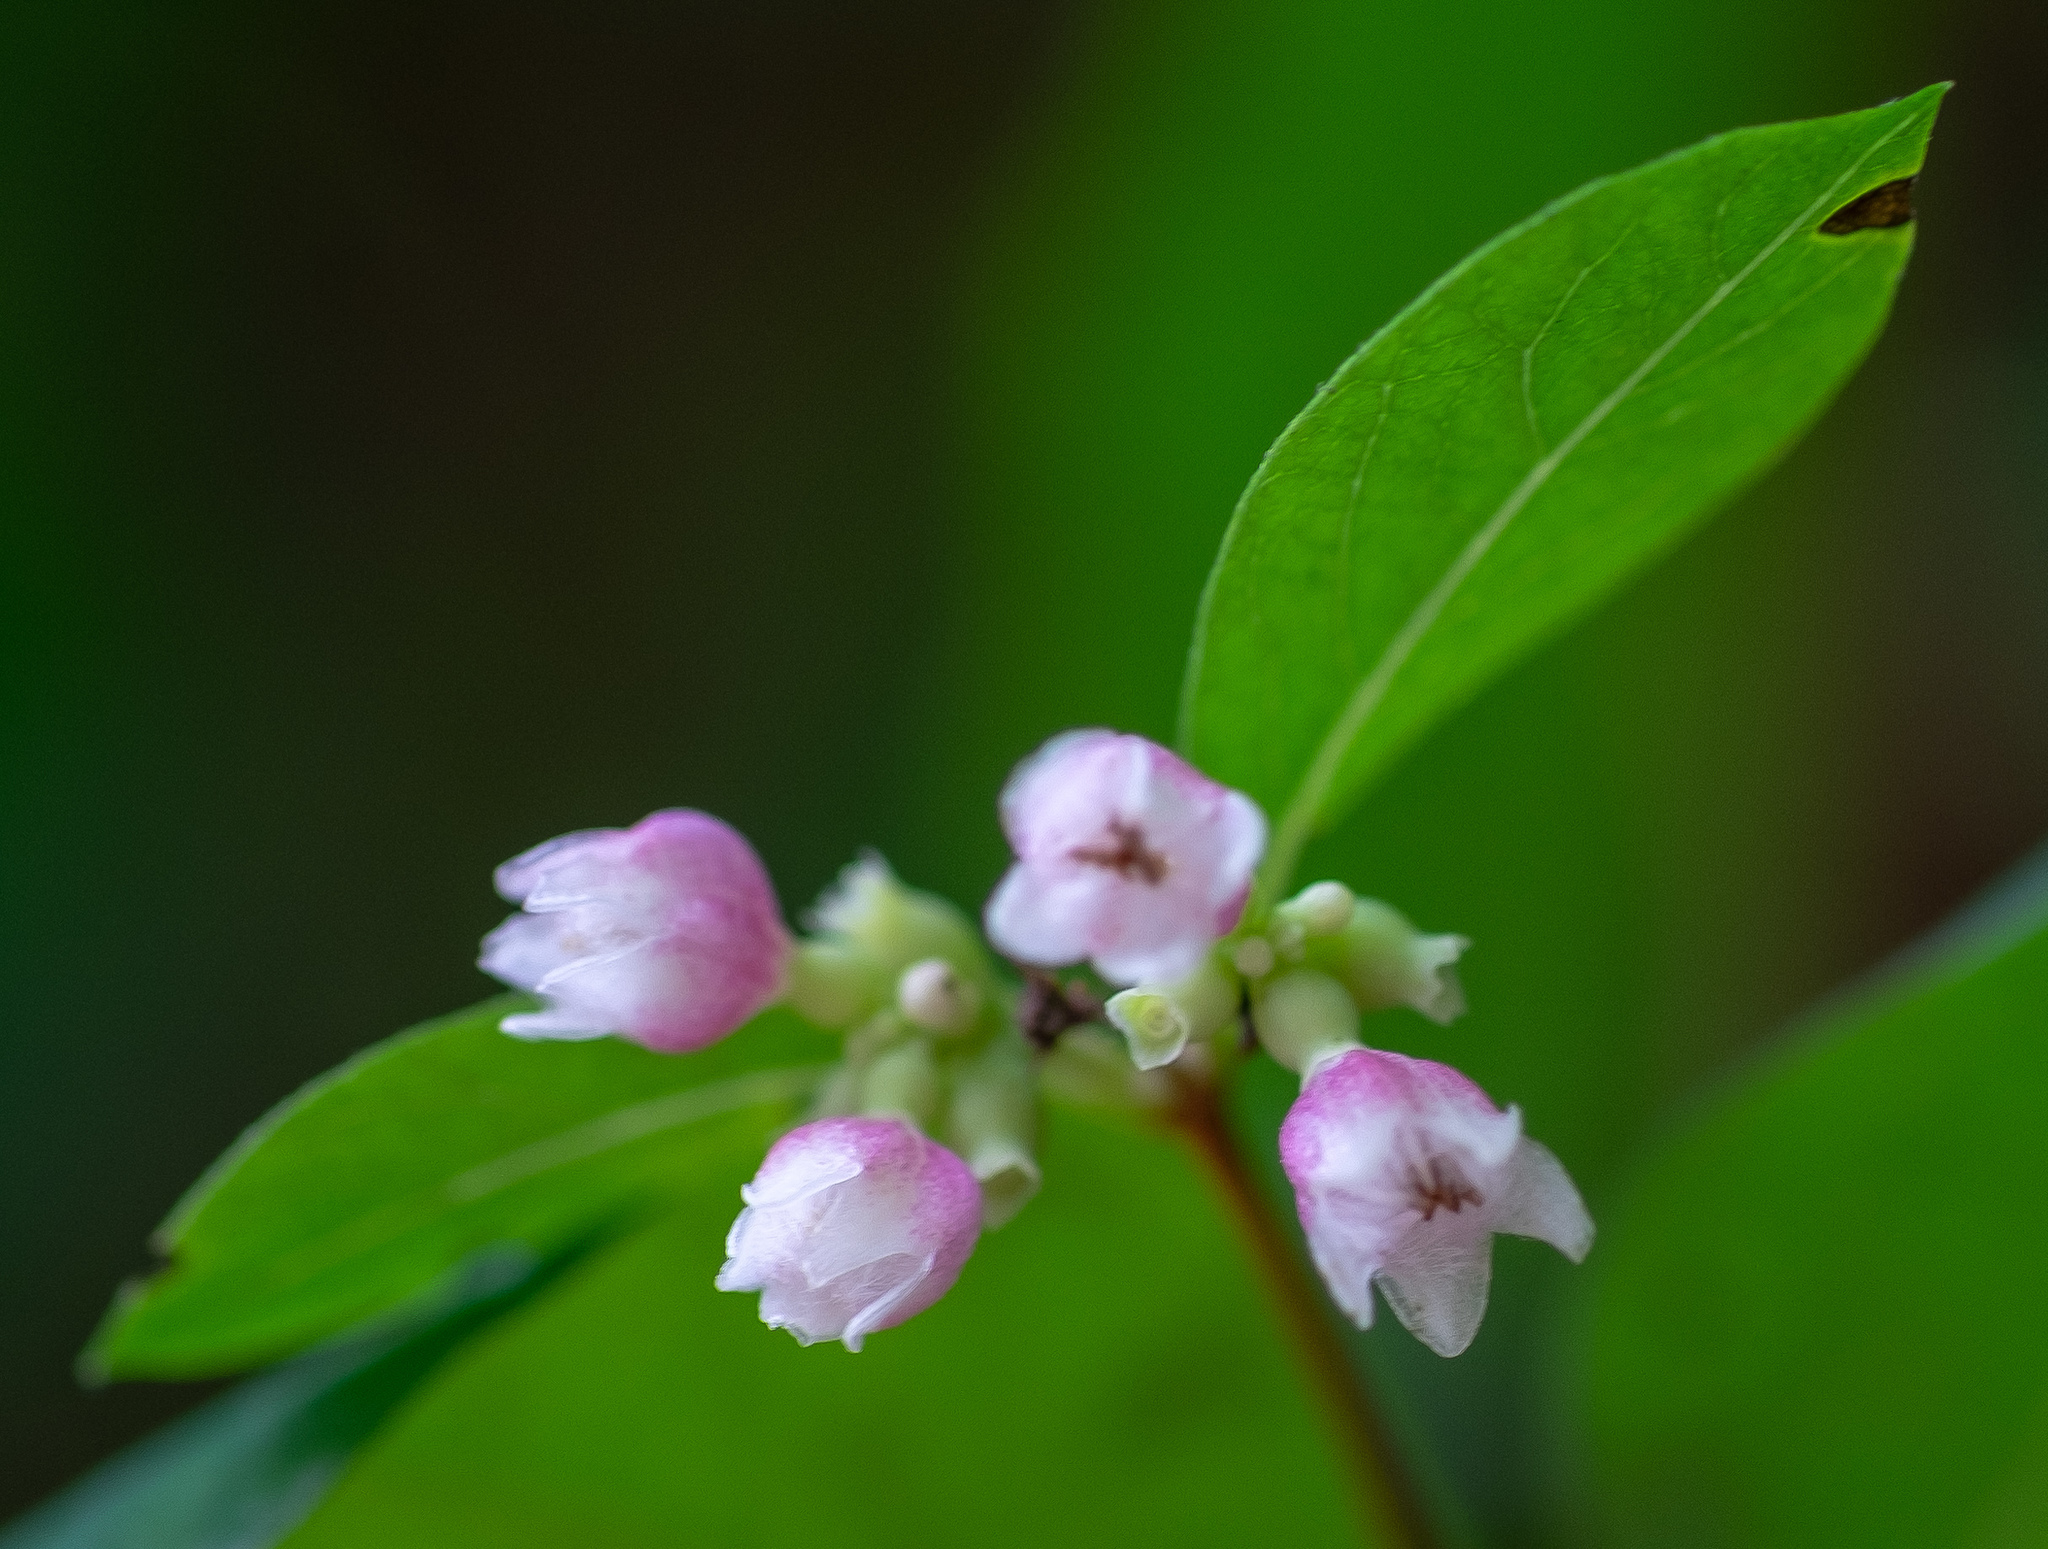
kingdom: Plantae
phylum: Tracheophyta
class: Magnoliopsida
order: Dipsacales
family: Caprifoliaceae
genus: Symphoricarpos
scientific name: Symphoricarpos albus
